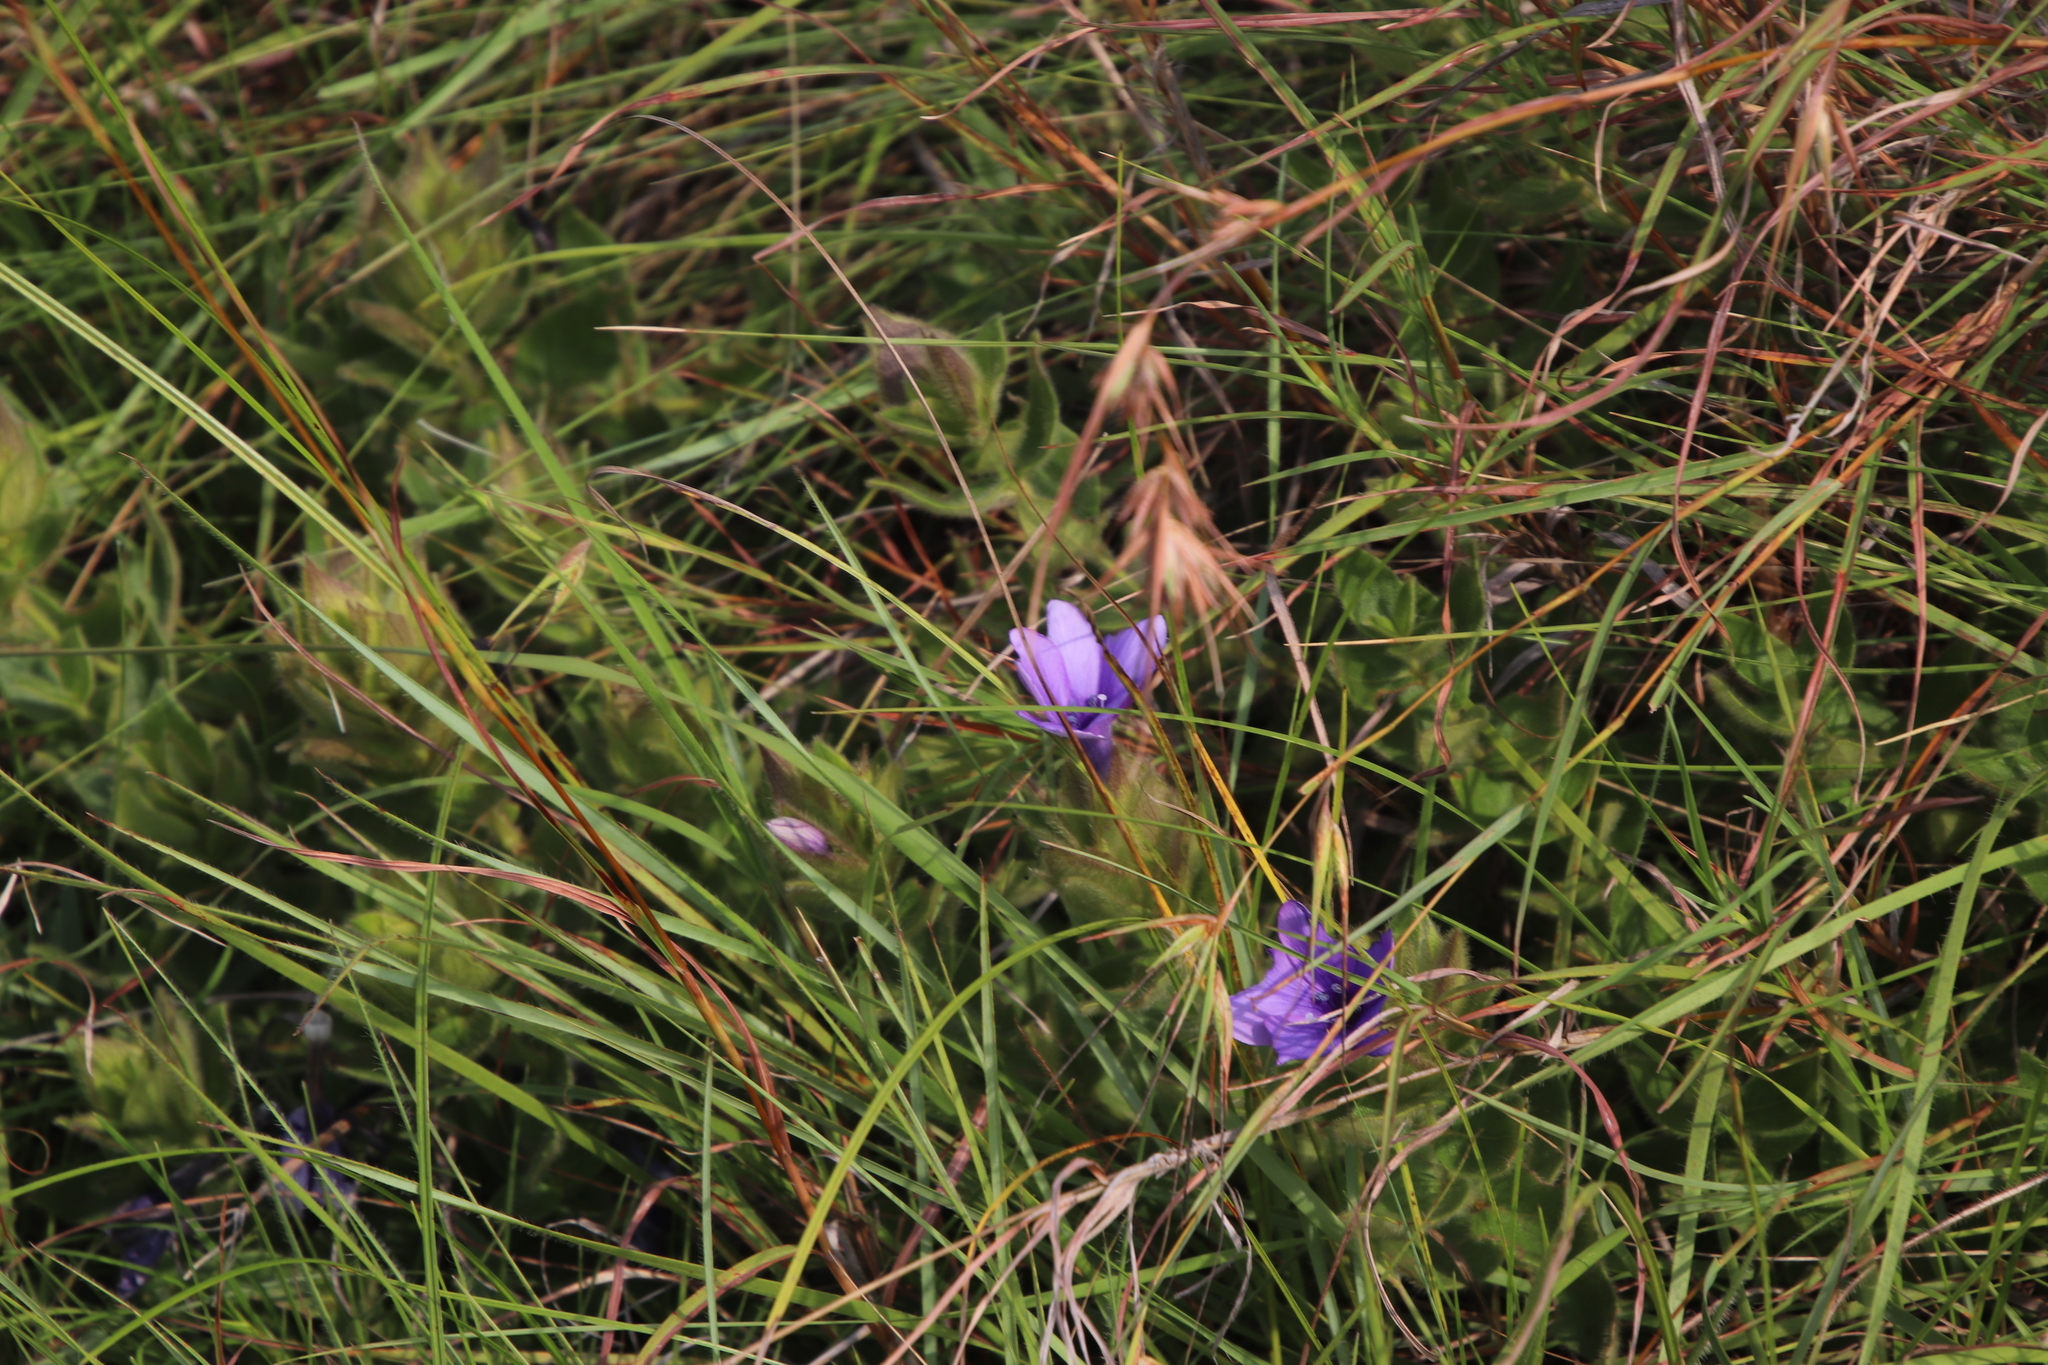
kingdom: Plantae
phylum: Tracheophyta
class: Magnoliopsida
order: Lamiales
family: Acanthaceae
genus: Barleria
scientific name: Barleria ovata
